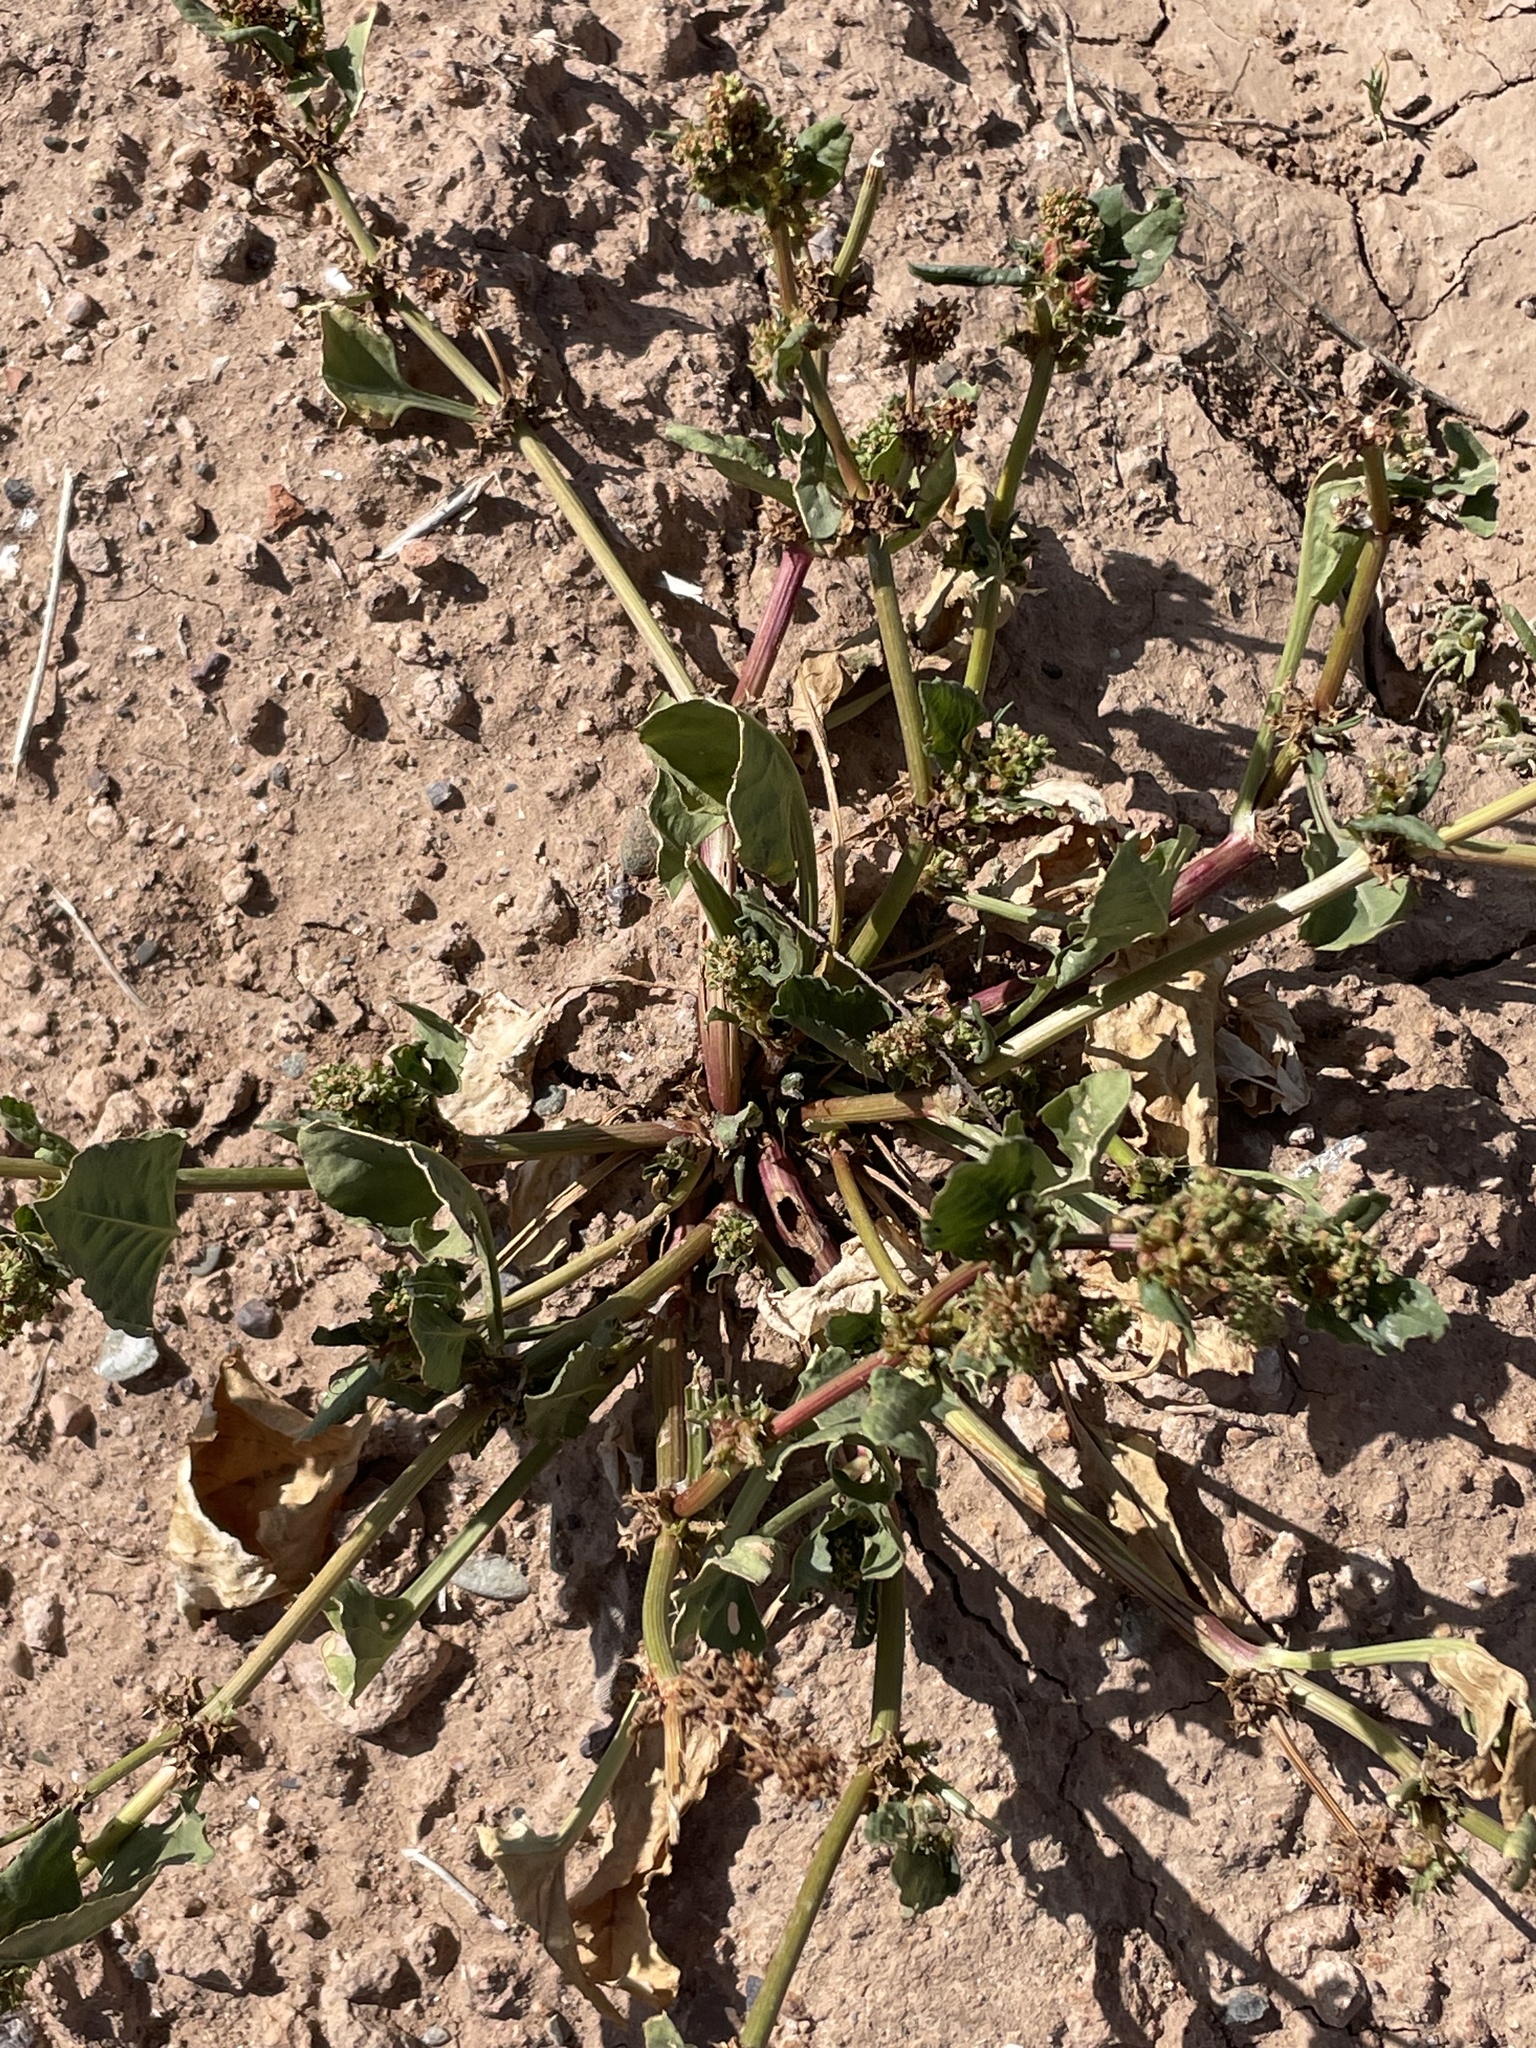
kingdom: Plantae
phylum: Tracheophyta
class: Magnoliopsida
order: Caryophyllales
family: Polygonaceae
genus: Rumex
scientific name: Rumex spinosus
